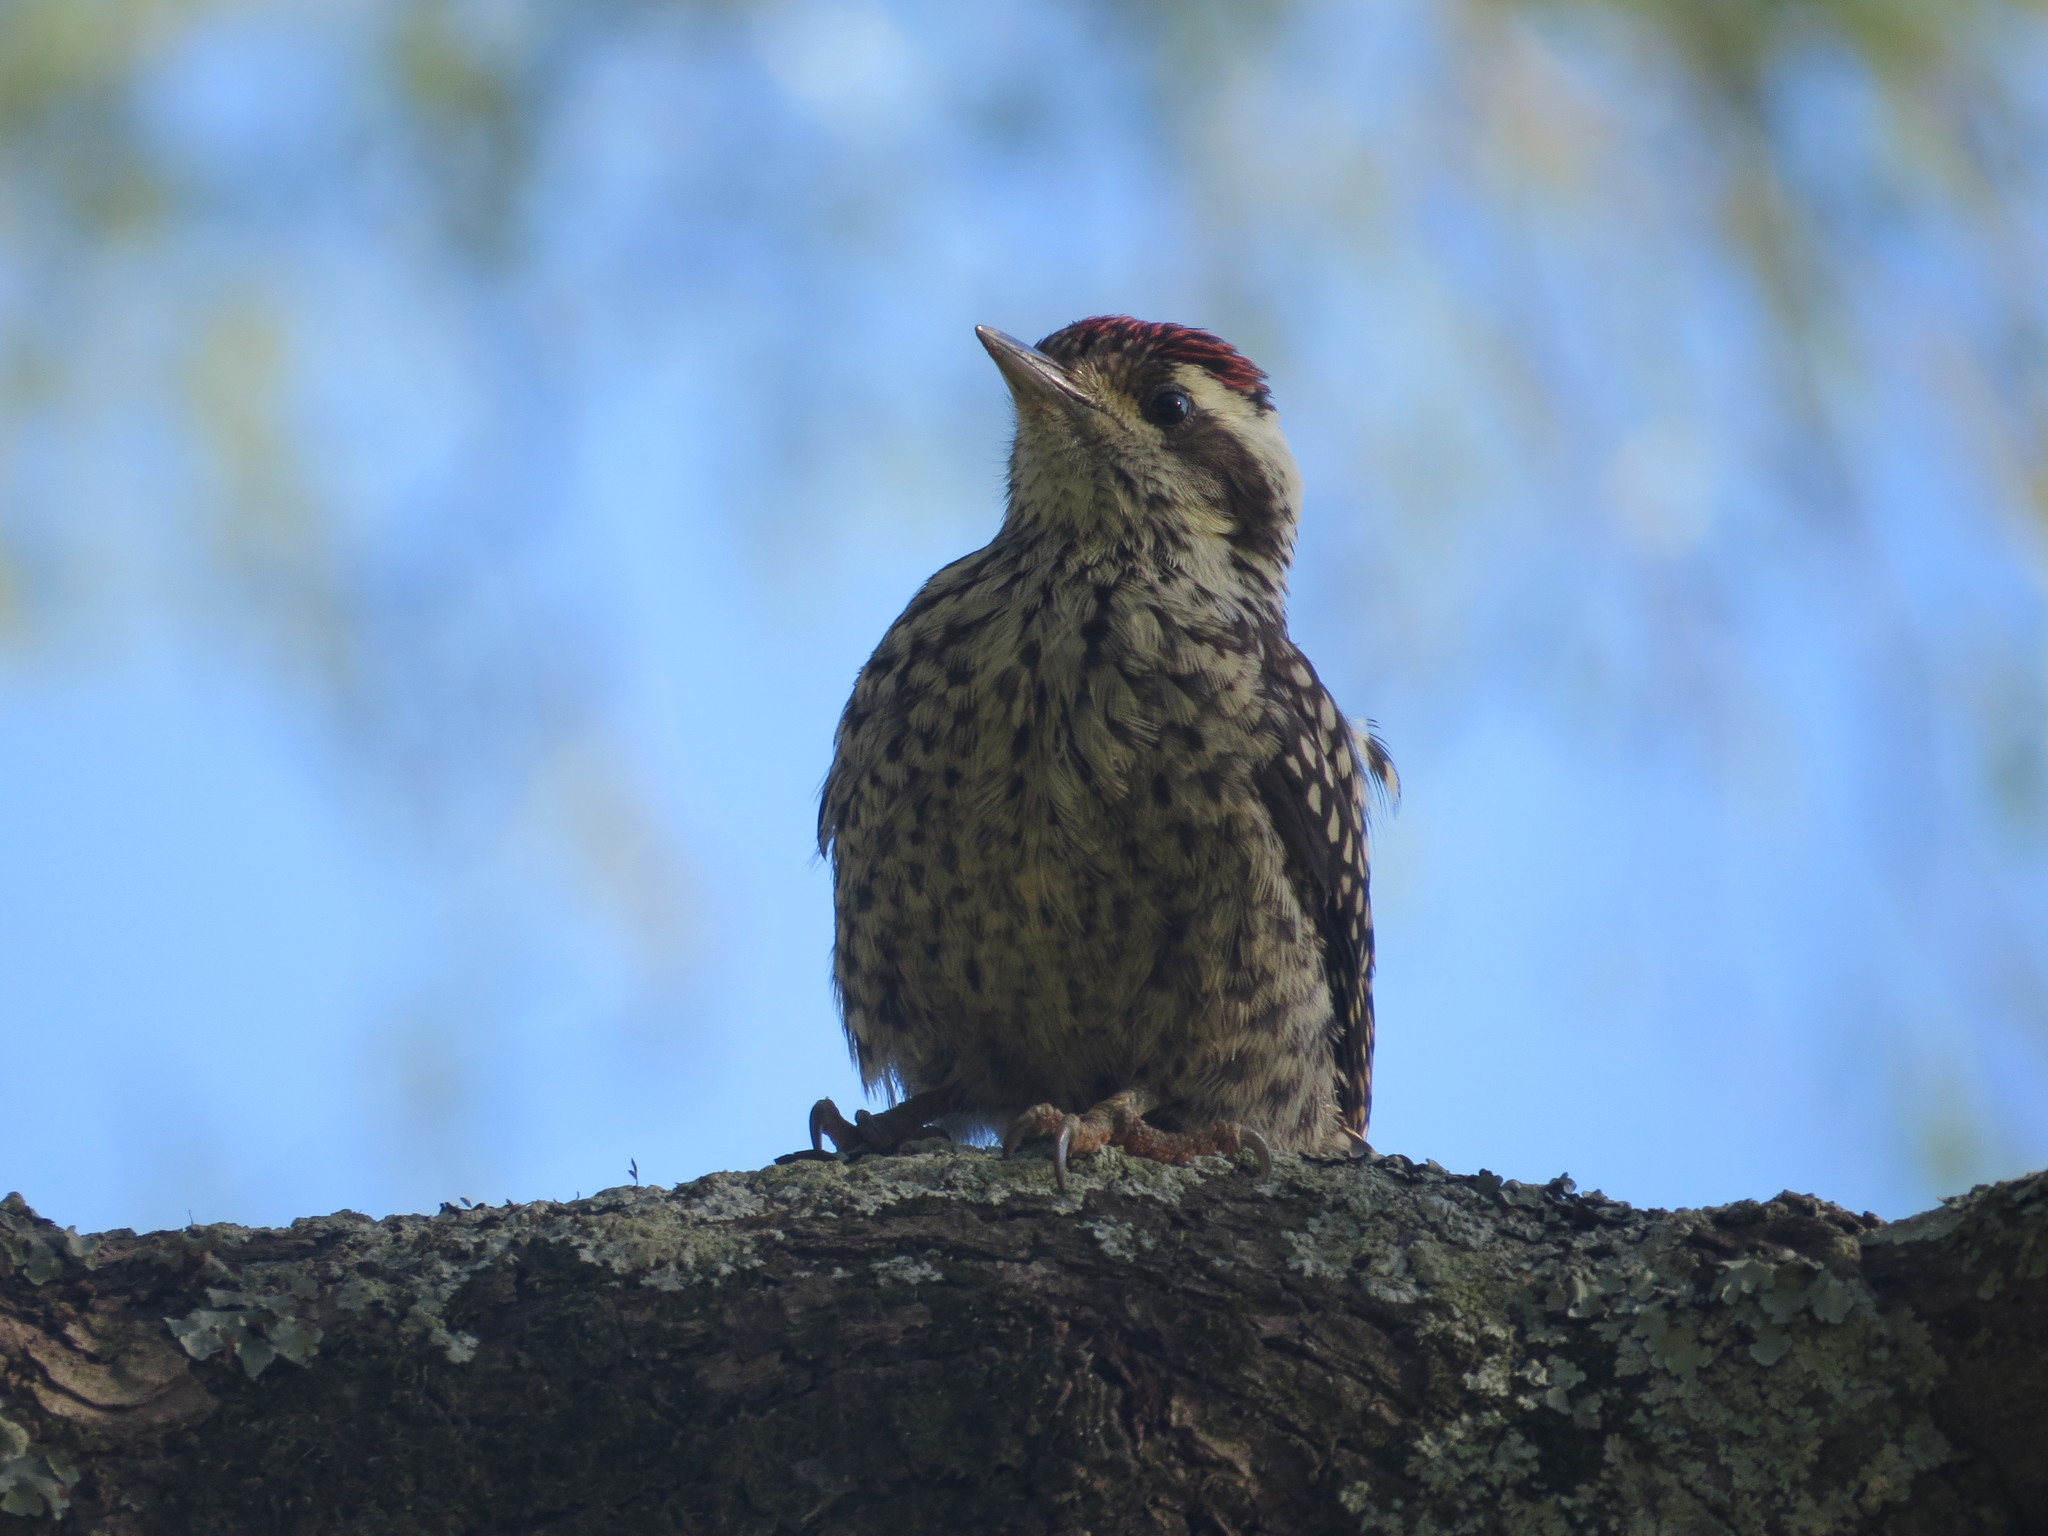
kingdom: Animalia
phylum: Chordata
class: Aves
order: Piciformes
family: Picidae
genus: Veniliornis
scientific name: Veniliornis mixtus
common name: Checkered woodpecker
